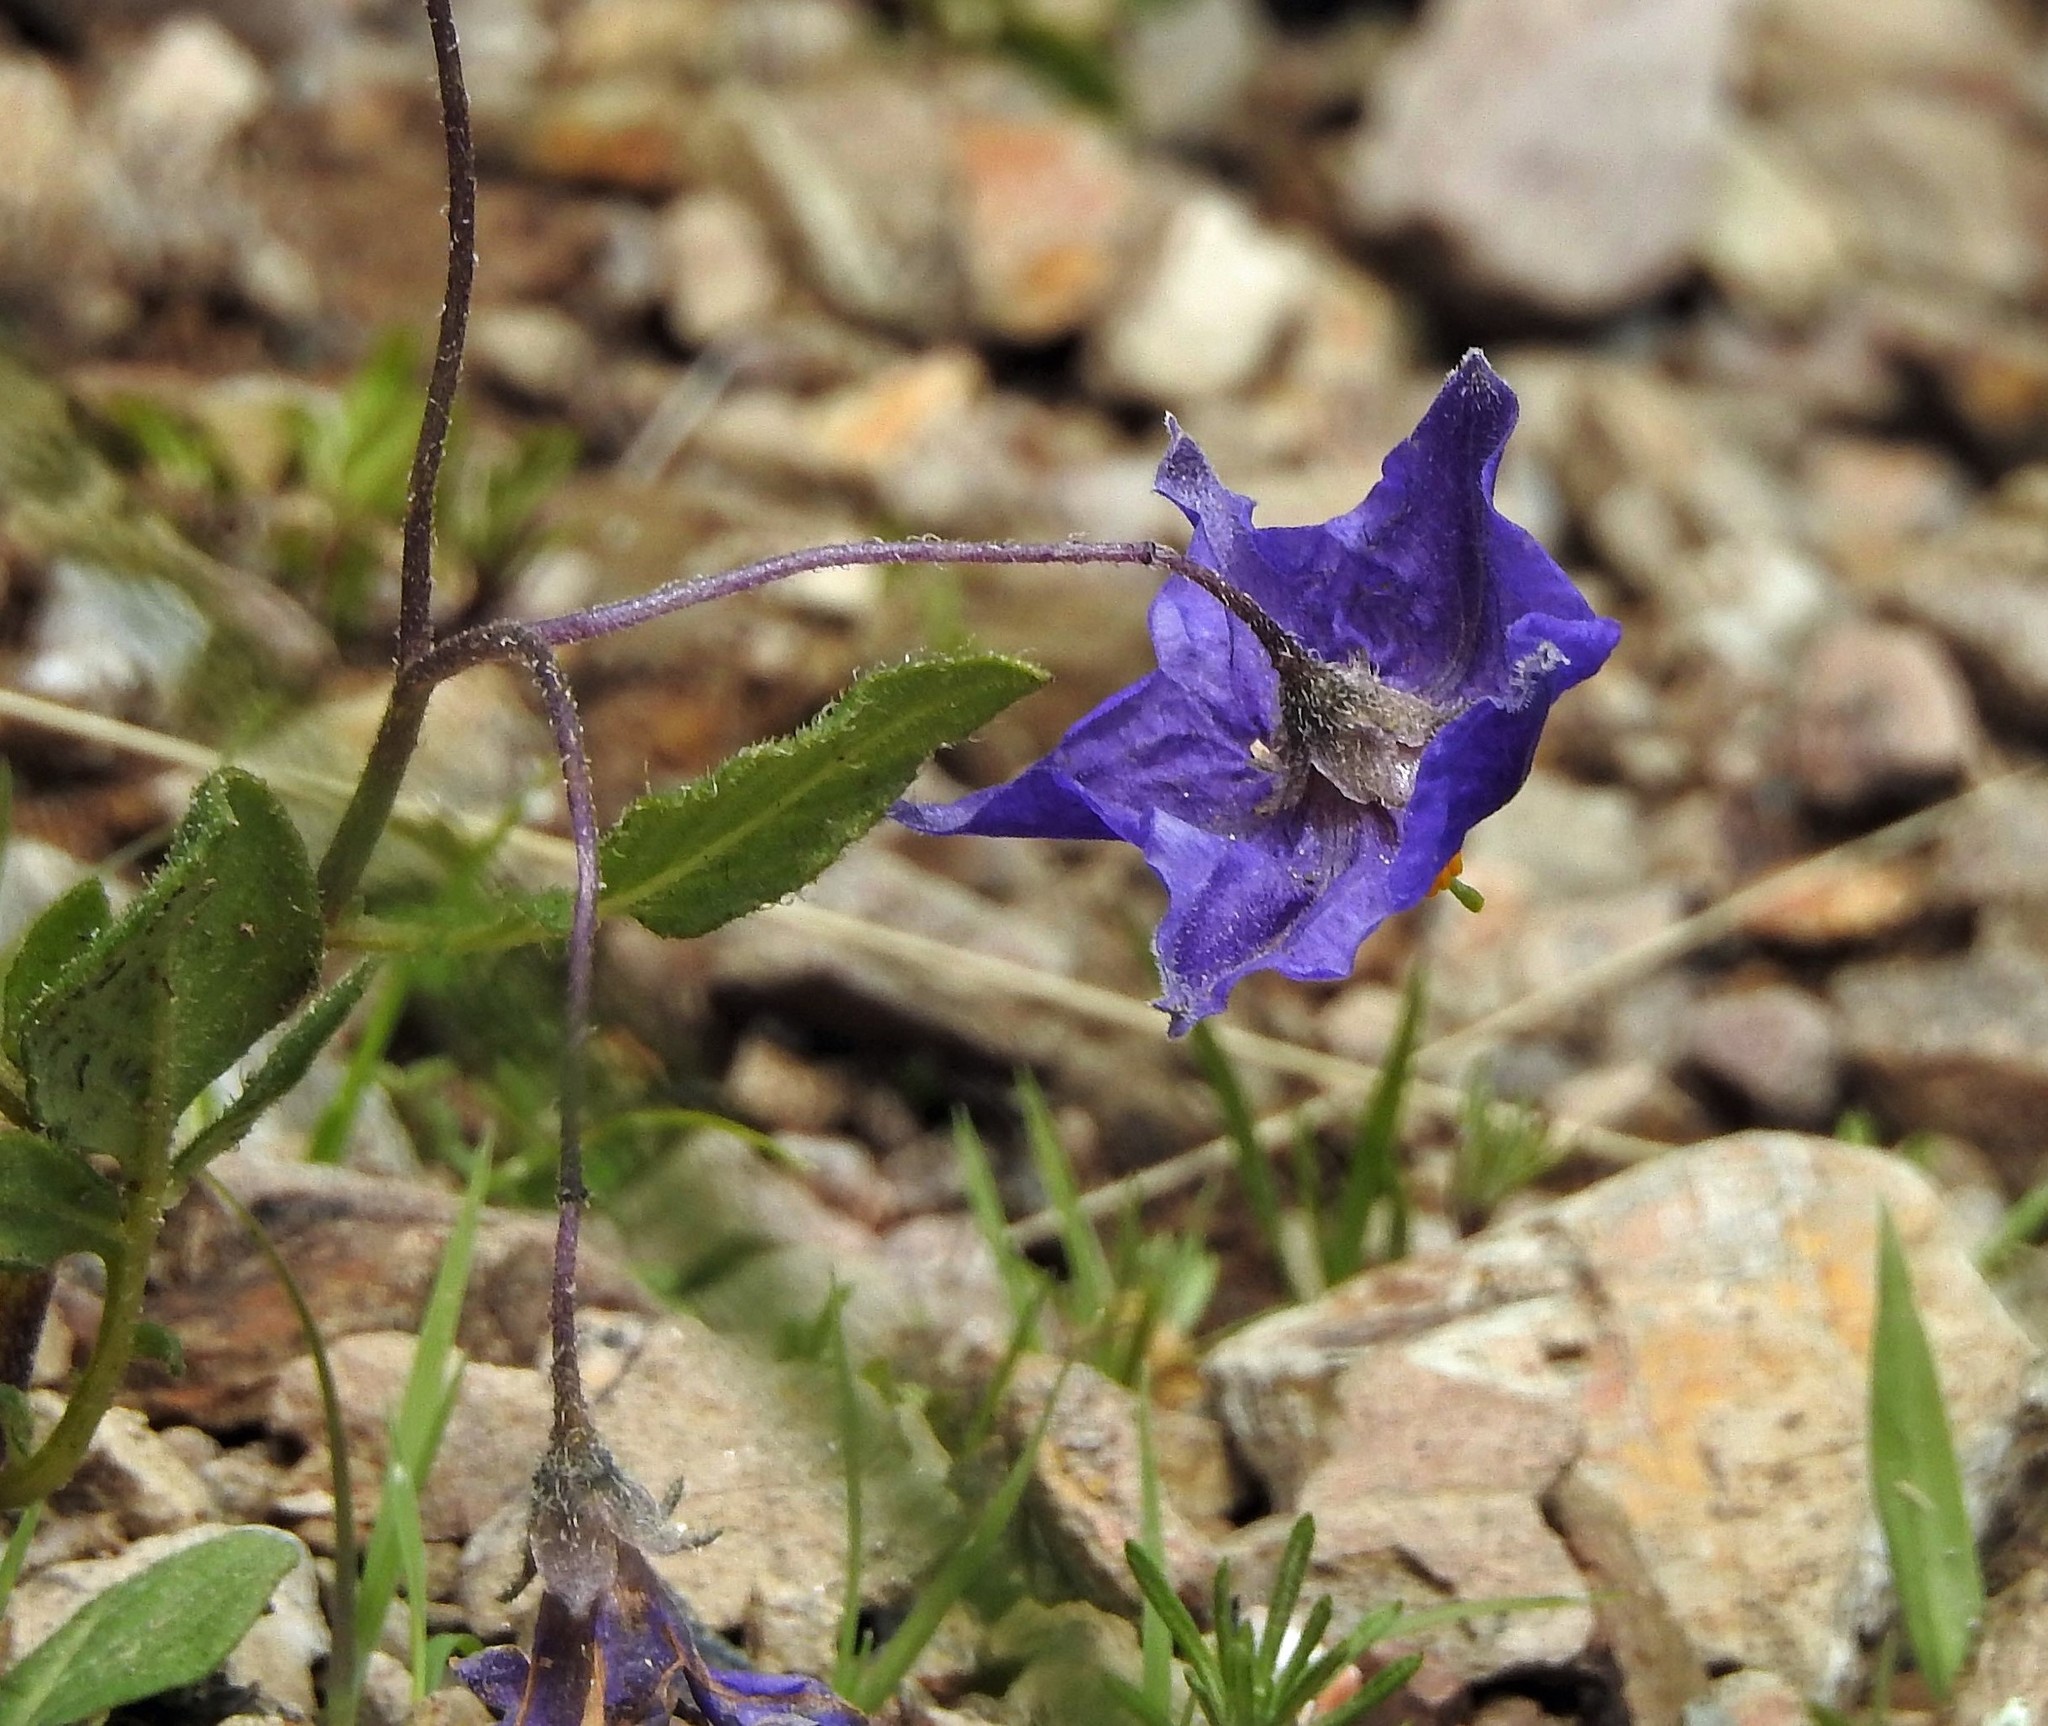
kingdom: Plantae
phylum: Tracheophyta
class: Magnoliopsida
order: Solanales
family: Solanaceae
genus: Solanum
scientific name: Solanum brevicaule
